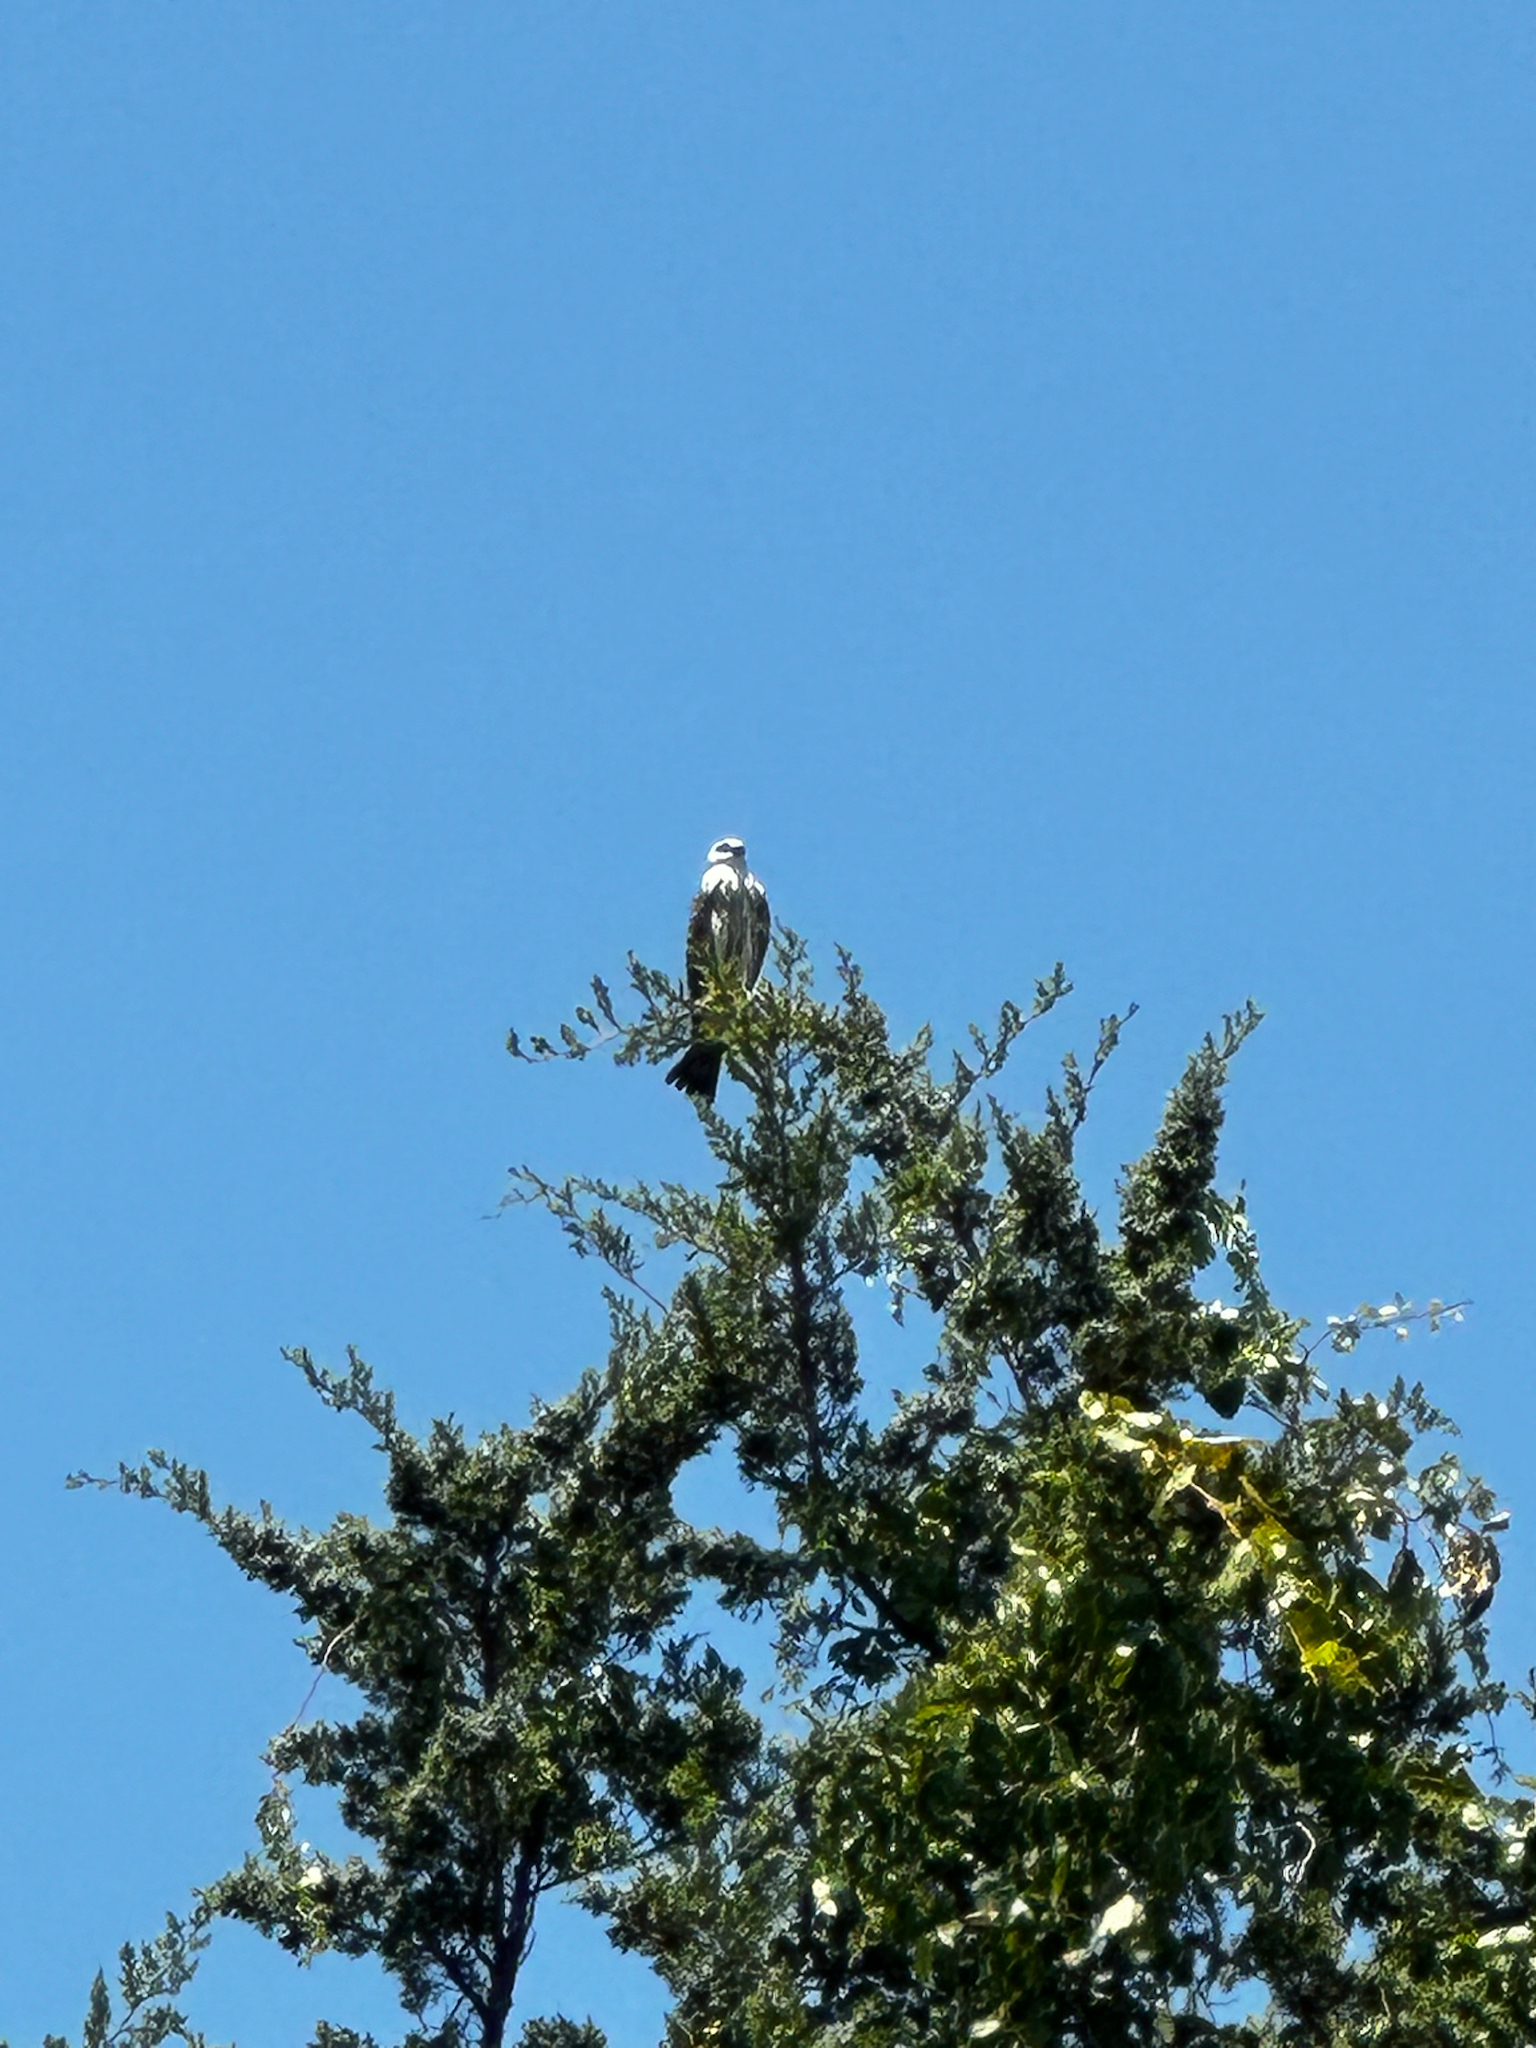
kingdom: Animalia
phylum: Chordata
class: Aves
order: Accipitriformes
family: Accipitridae
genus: Ictinia
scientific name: Ictinia mississippiensis
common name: Mississippi kite
